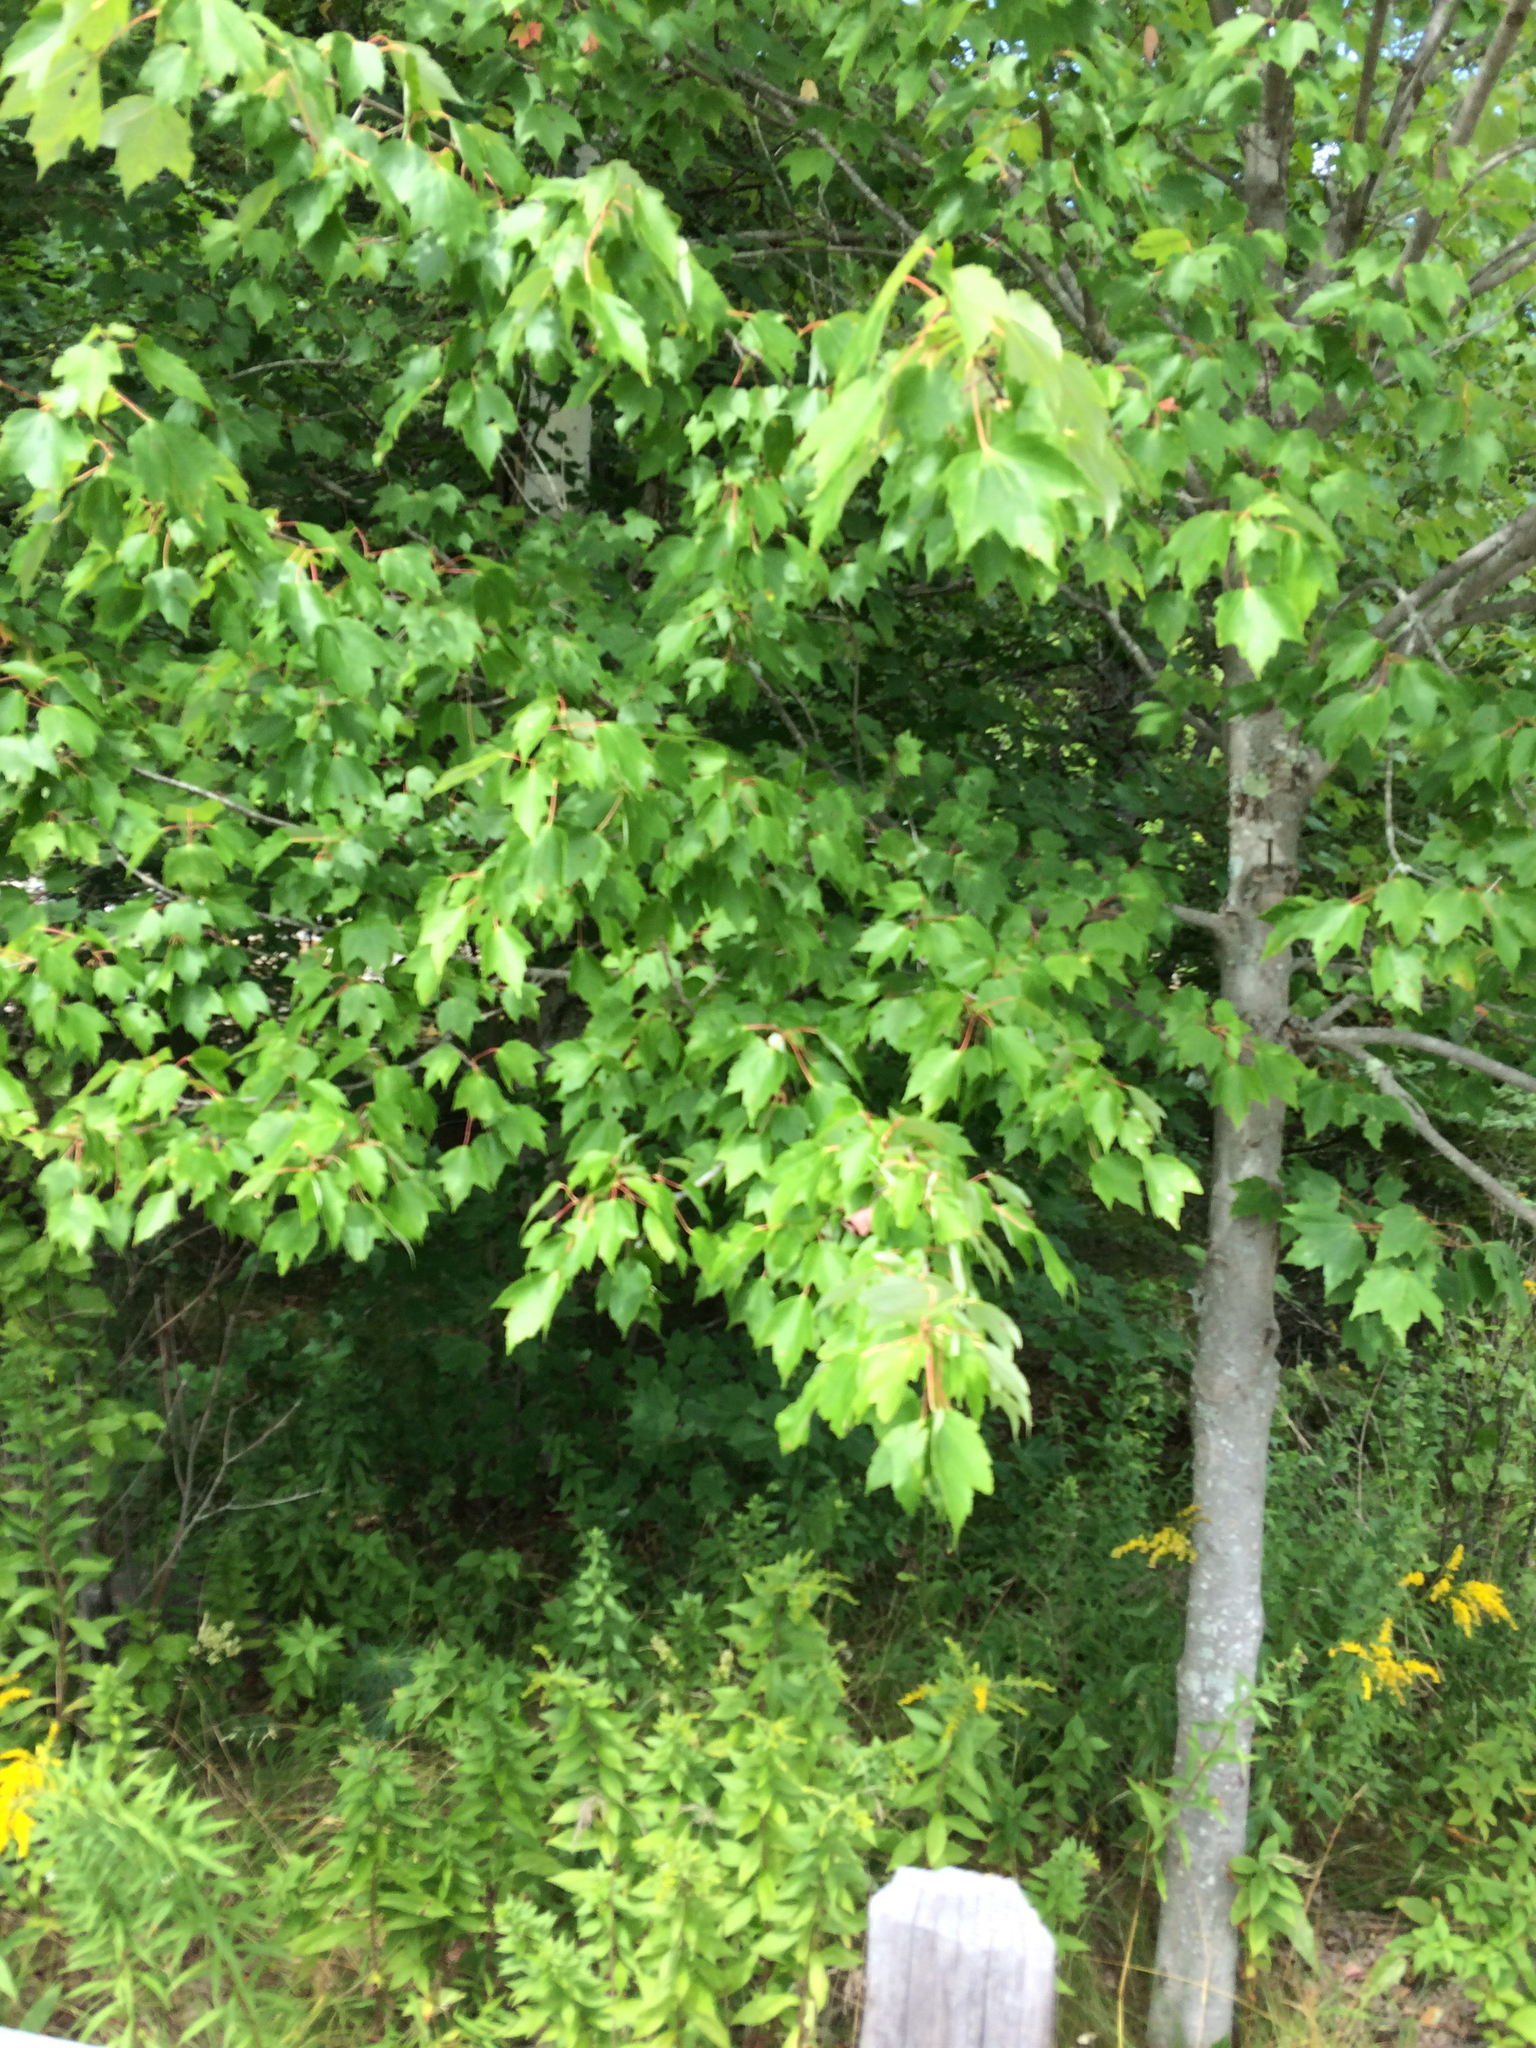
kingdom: Plantae
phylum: Tracheophyta
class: Magnoliopsida
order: Sapindales
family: Sapindaceae
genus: Acer
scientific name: Acer rubrum
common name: Red maple
